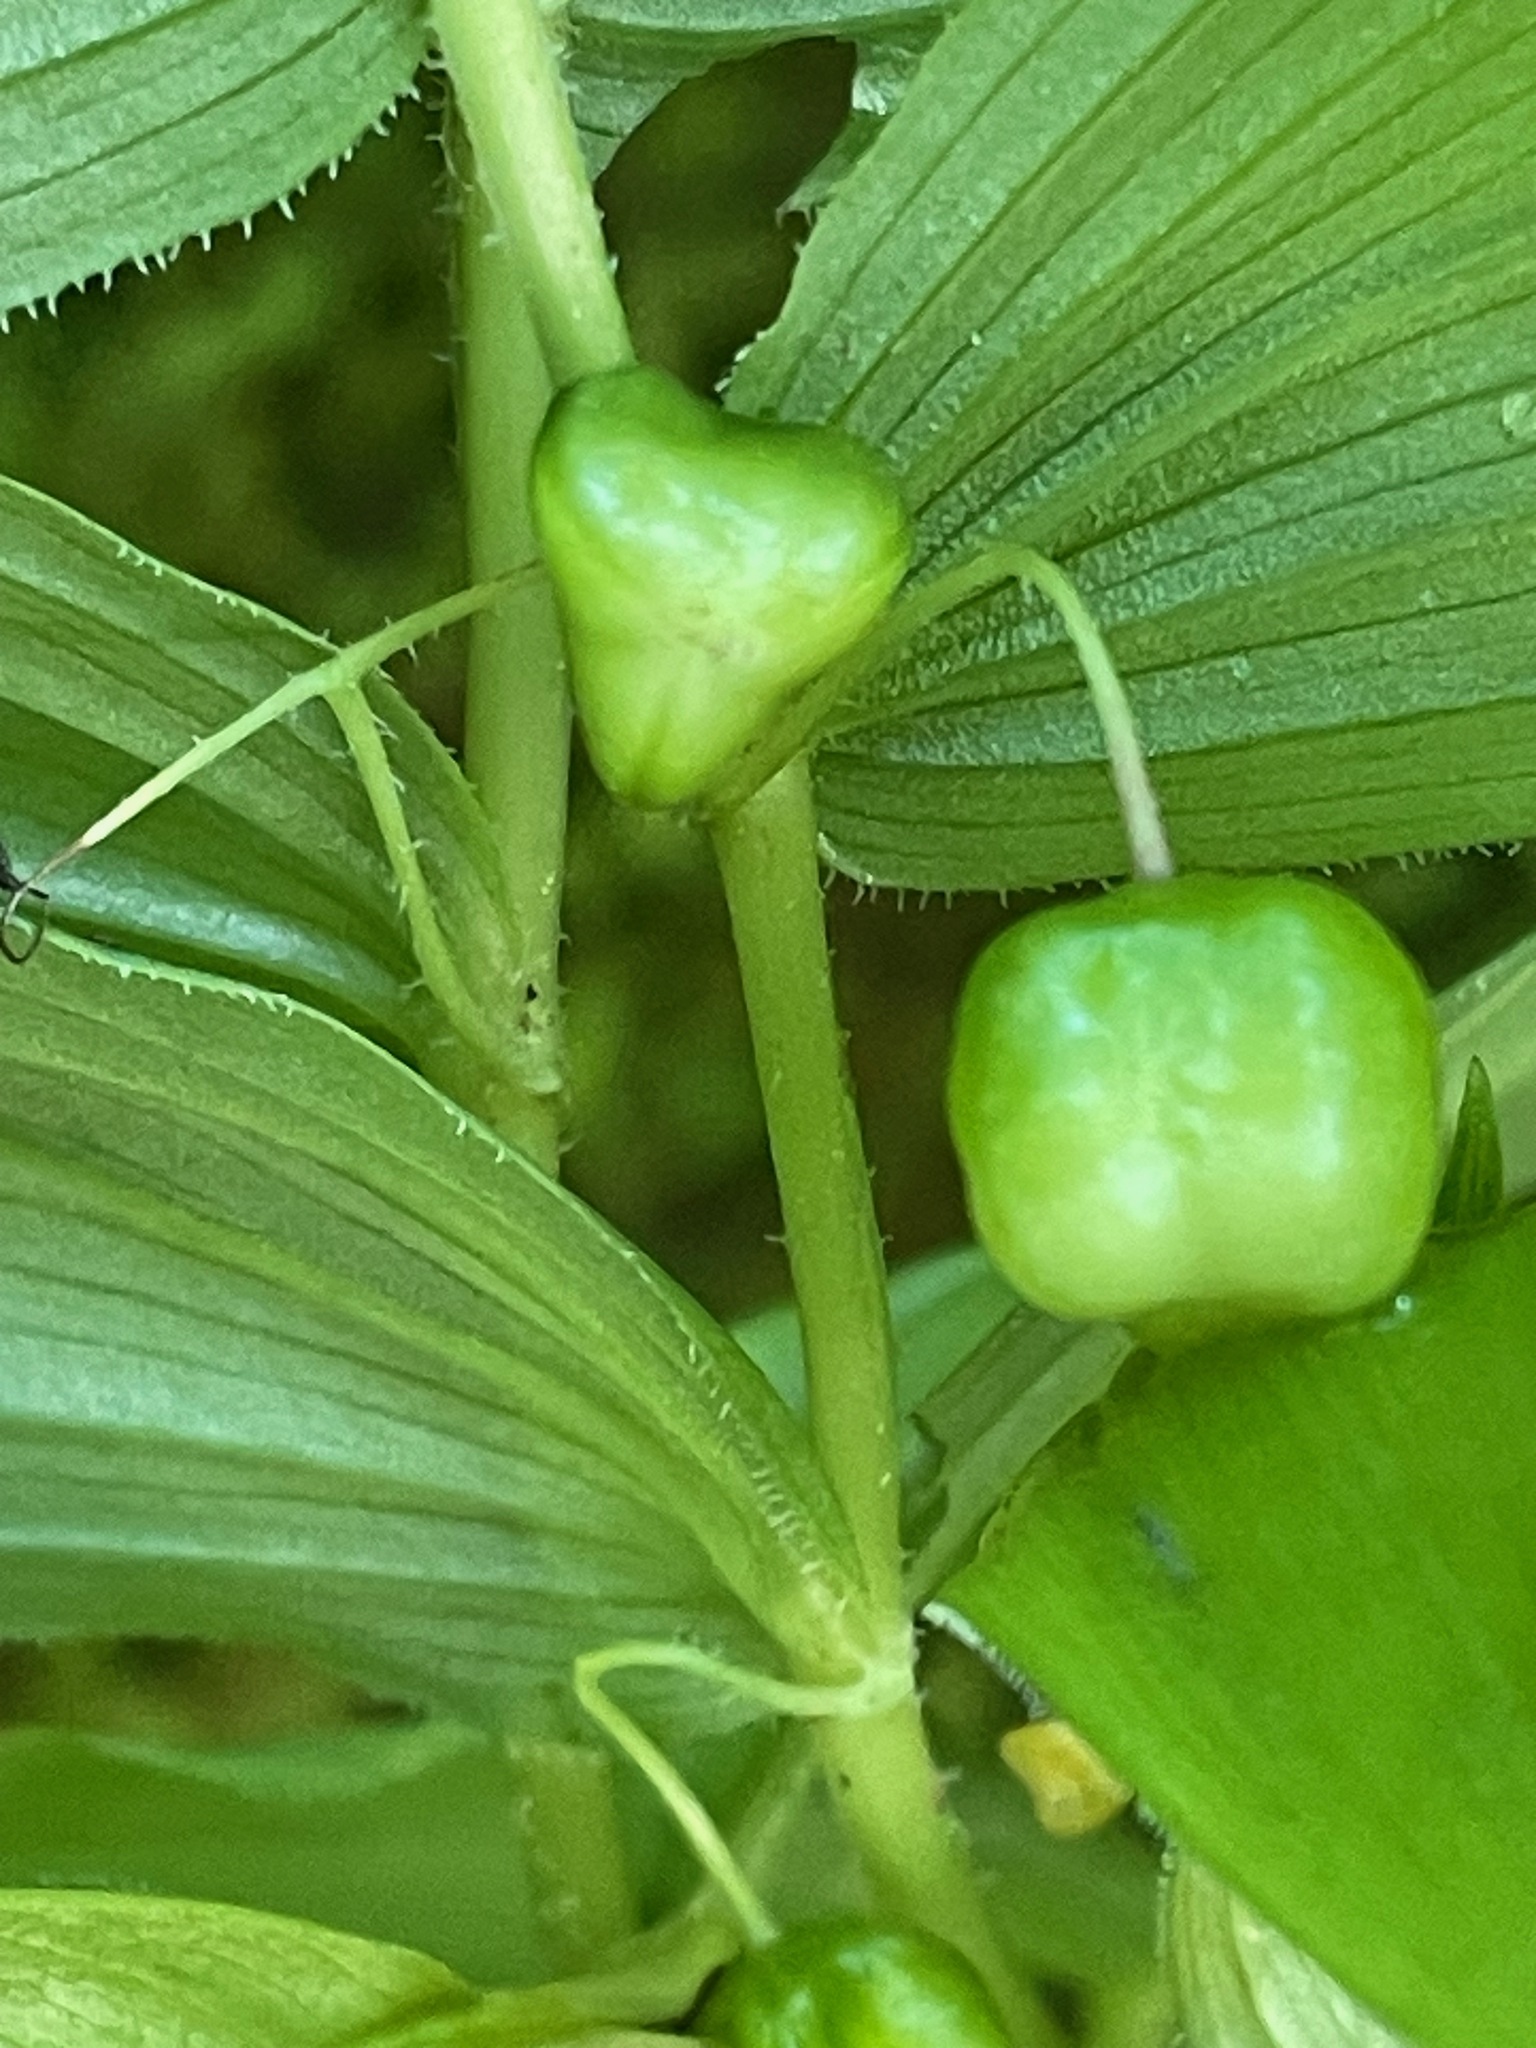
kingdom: Plantae
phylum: Tracheophyta
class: Liliopsida
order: Liliales
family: Liliaceae
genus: Streptopus
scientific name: Streptopus lanceolatus
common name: Rose mandarin
